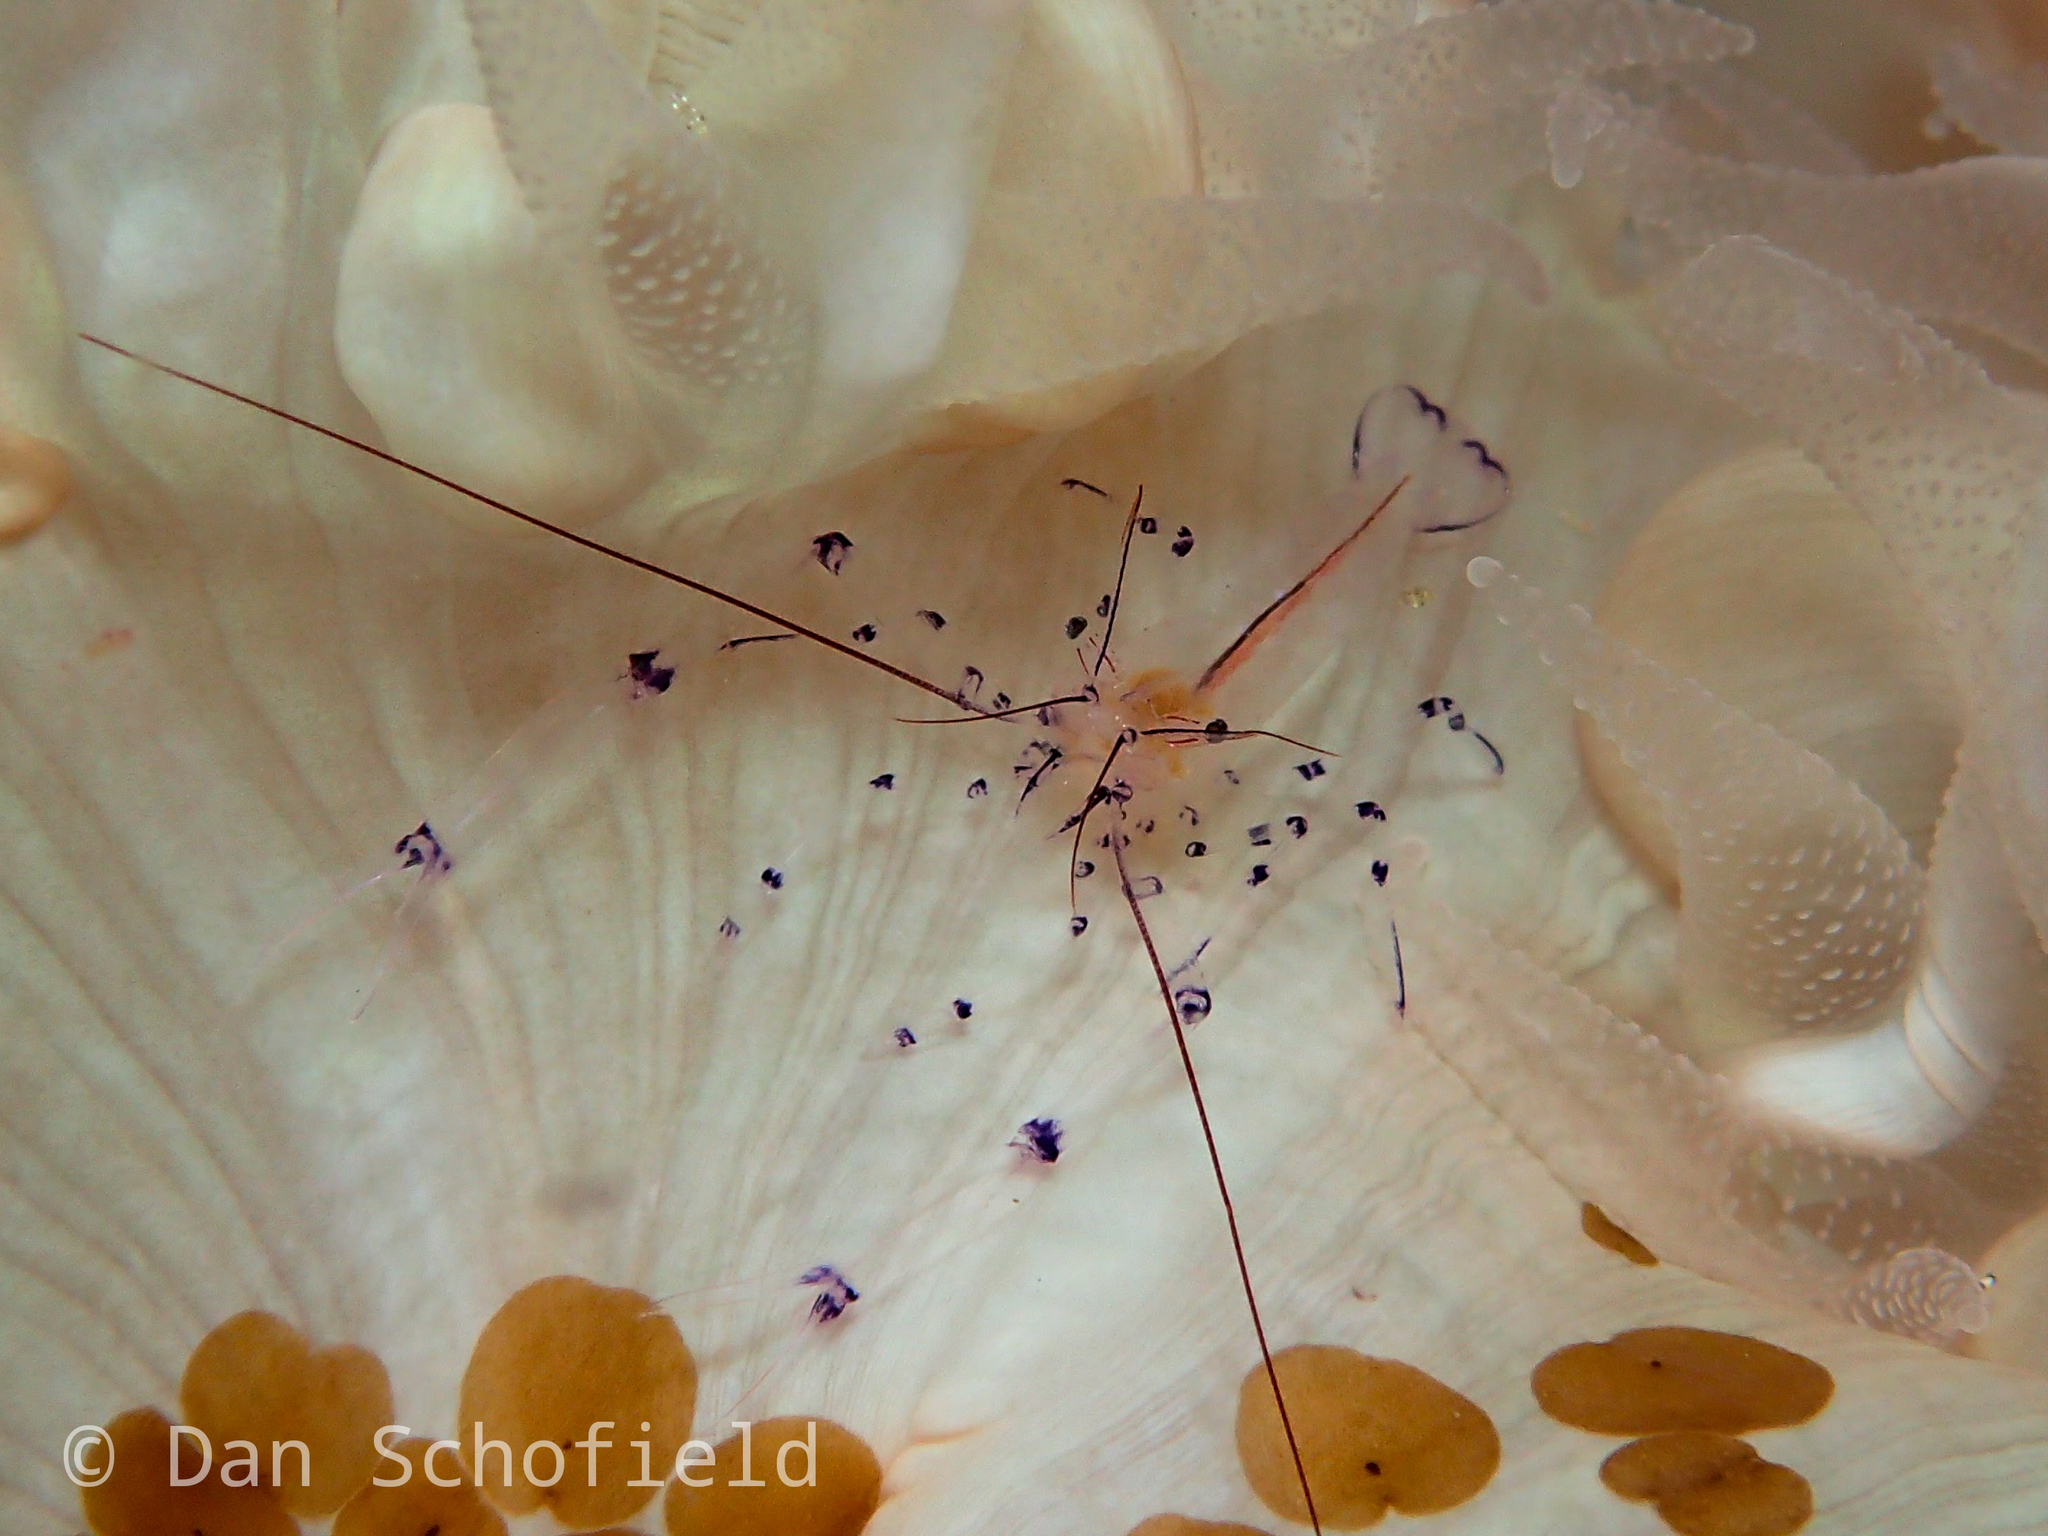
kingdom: Animalia
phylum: Arthropoda
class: Malacostraca
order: Decapoda
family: Palaemonidae
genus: Vir
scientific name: Vir colemani
